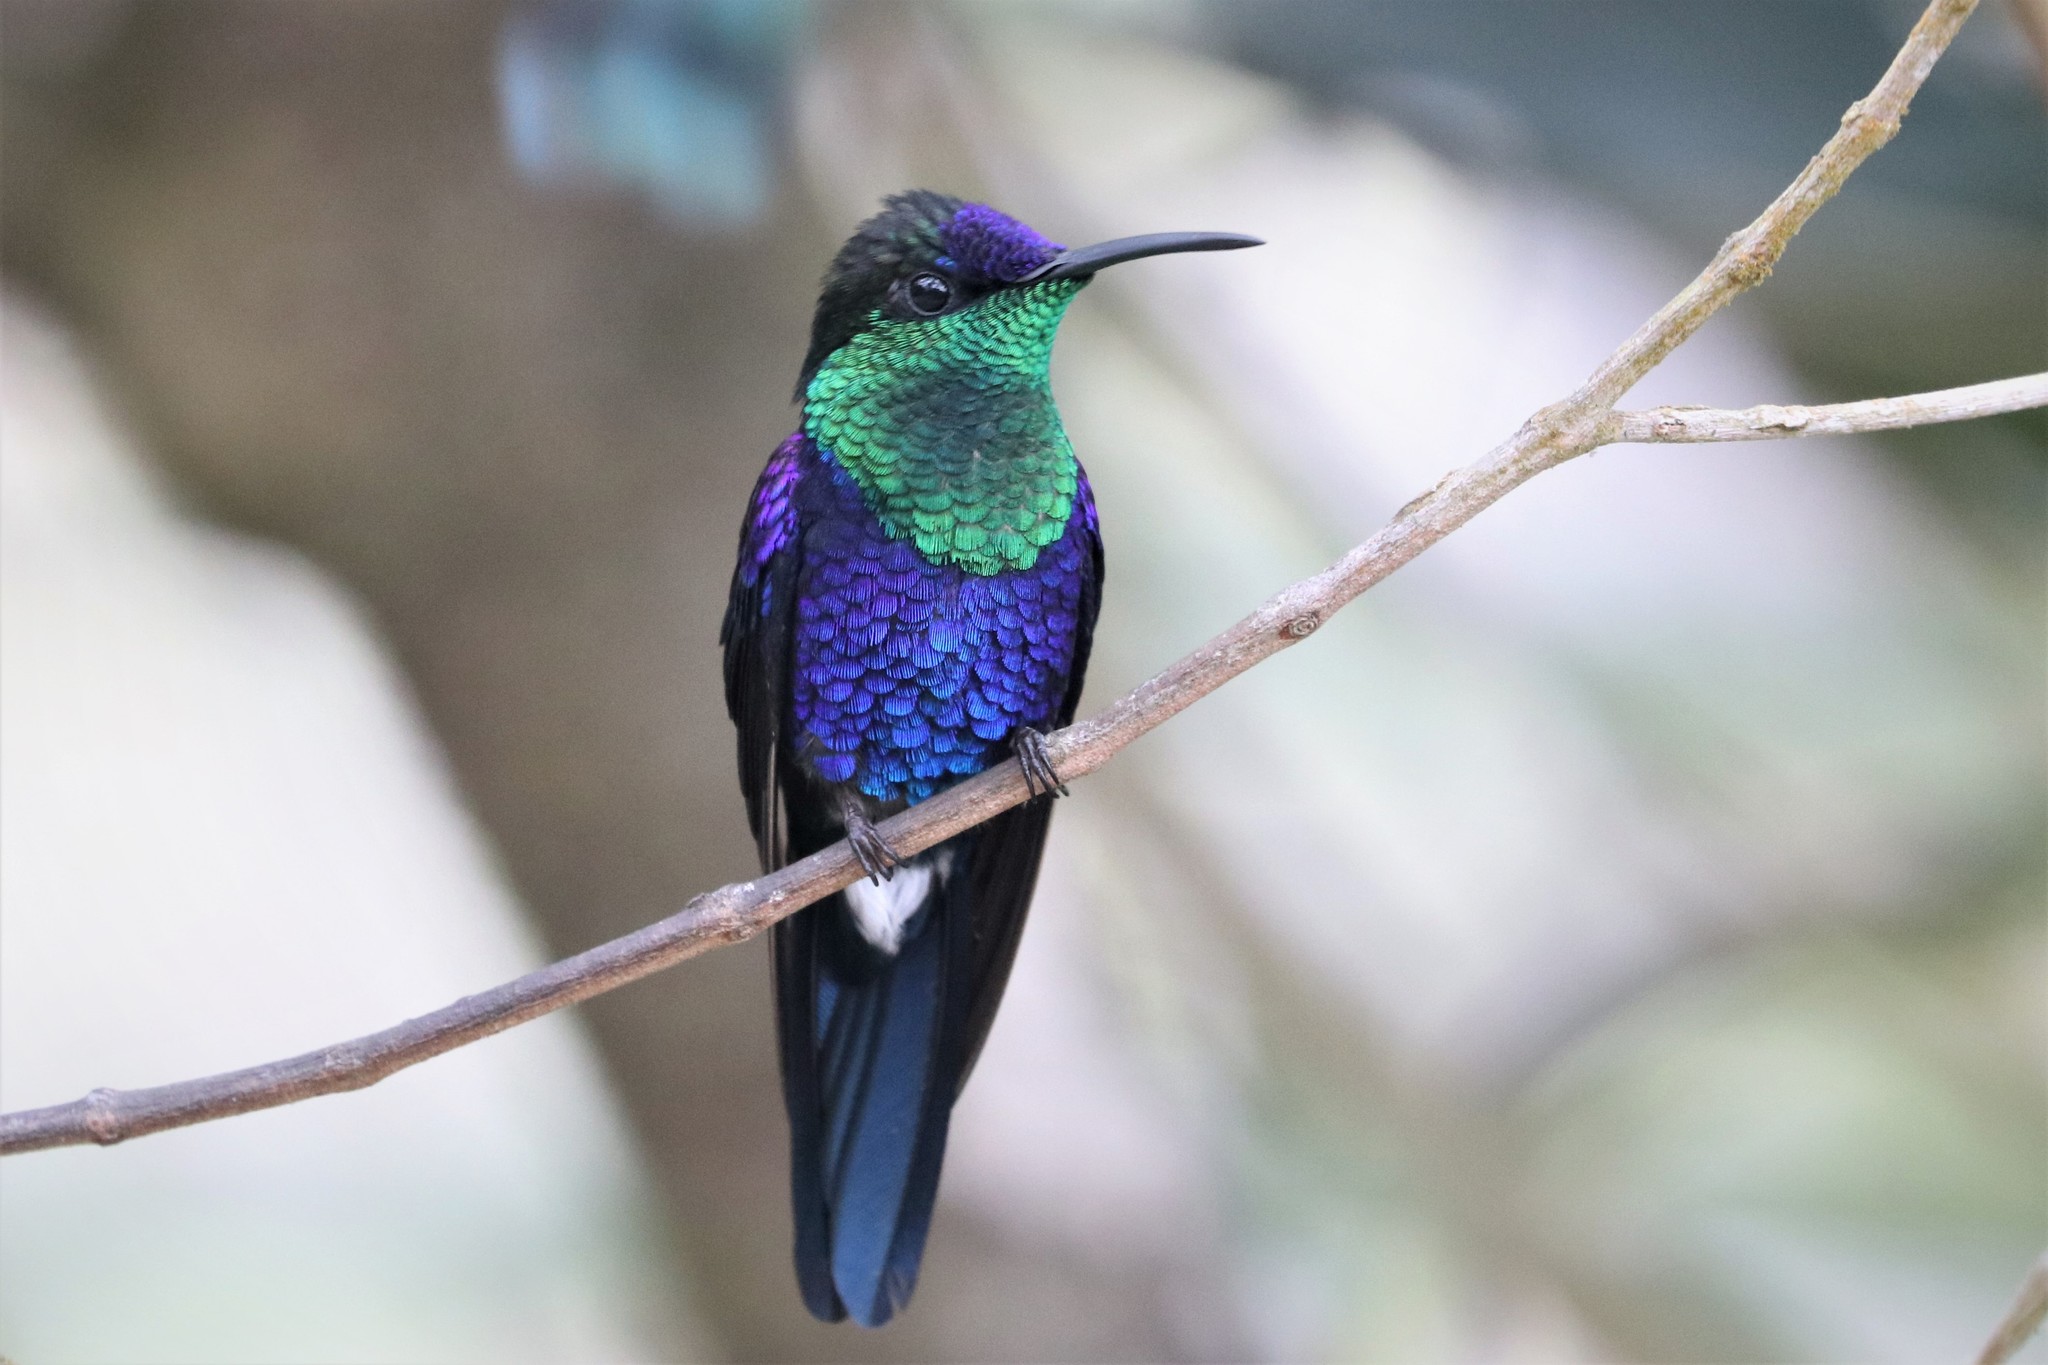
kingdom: Animalia
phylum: Chordata
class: Aves
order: Apodiformes
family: Trochilidae
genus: Thalurania
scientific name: Thalurania colombica
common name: Crowned woodnymph
